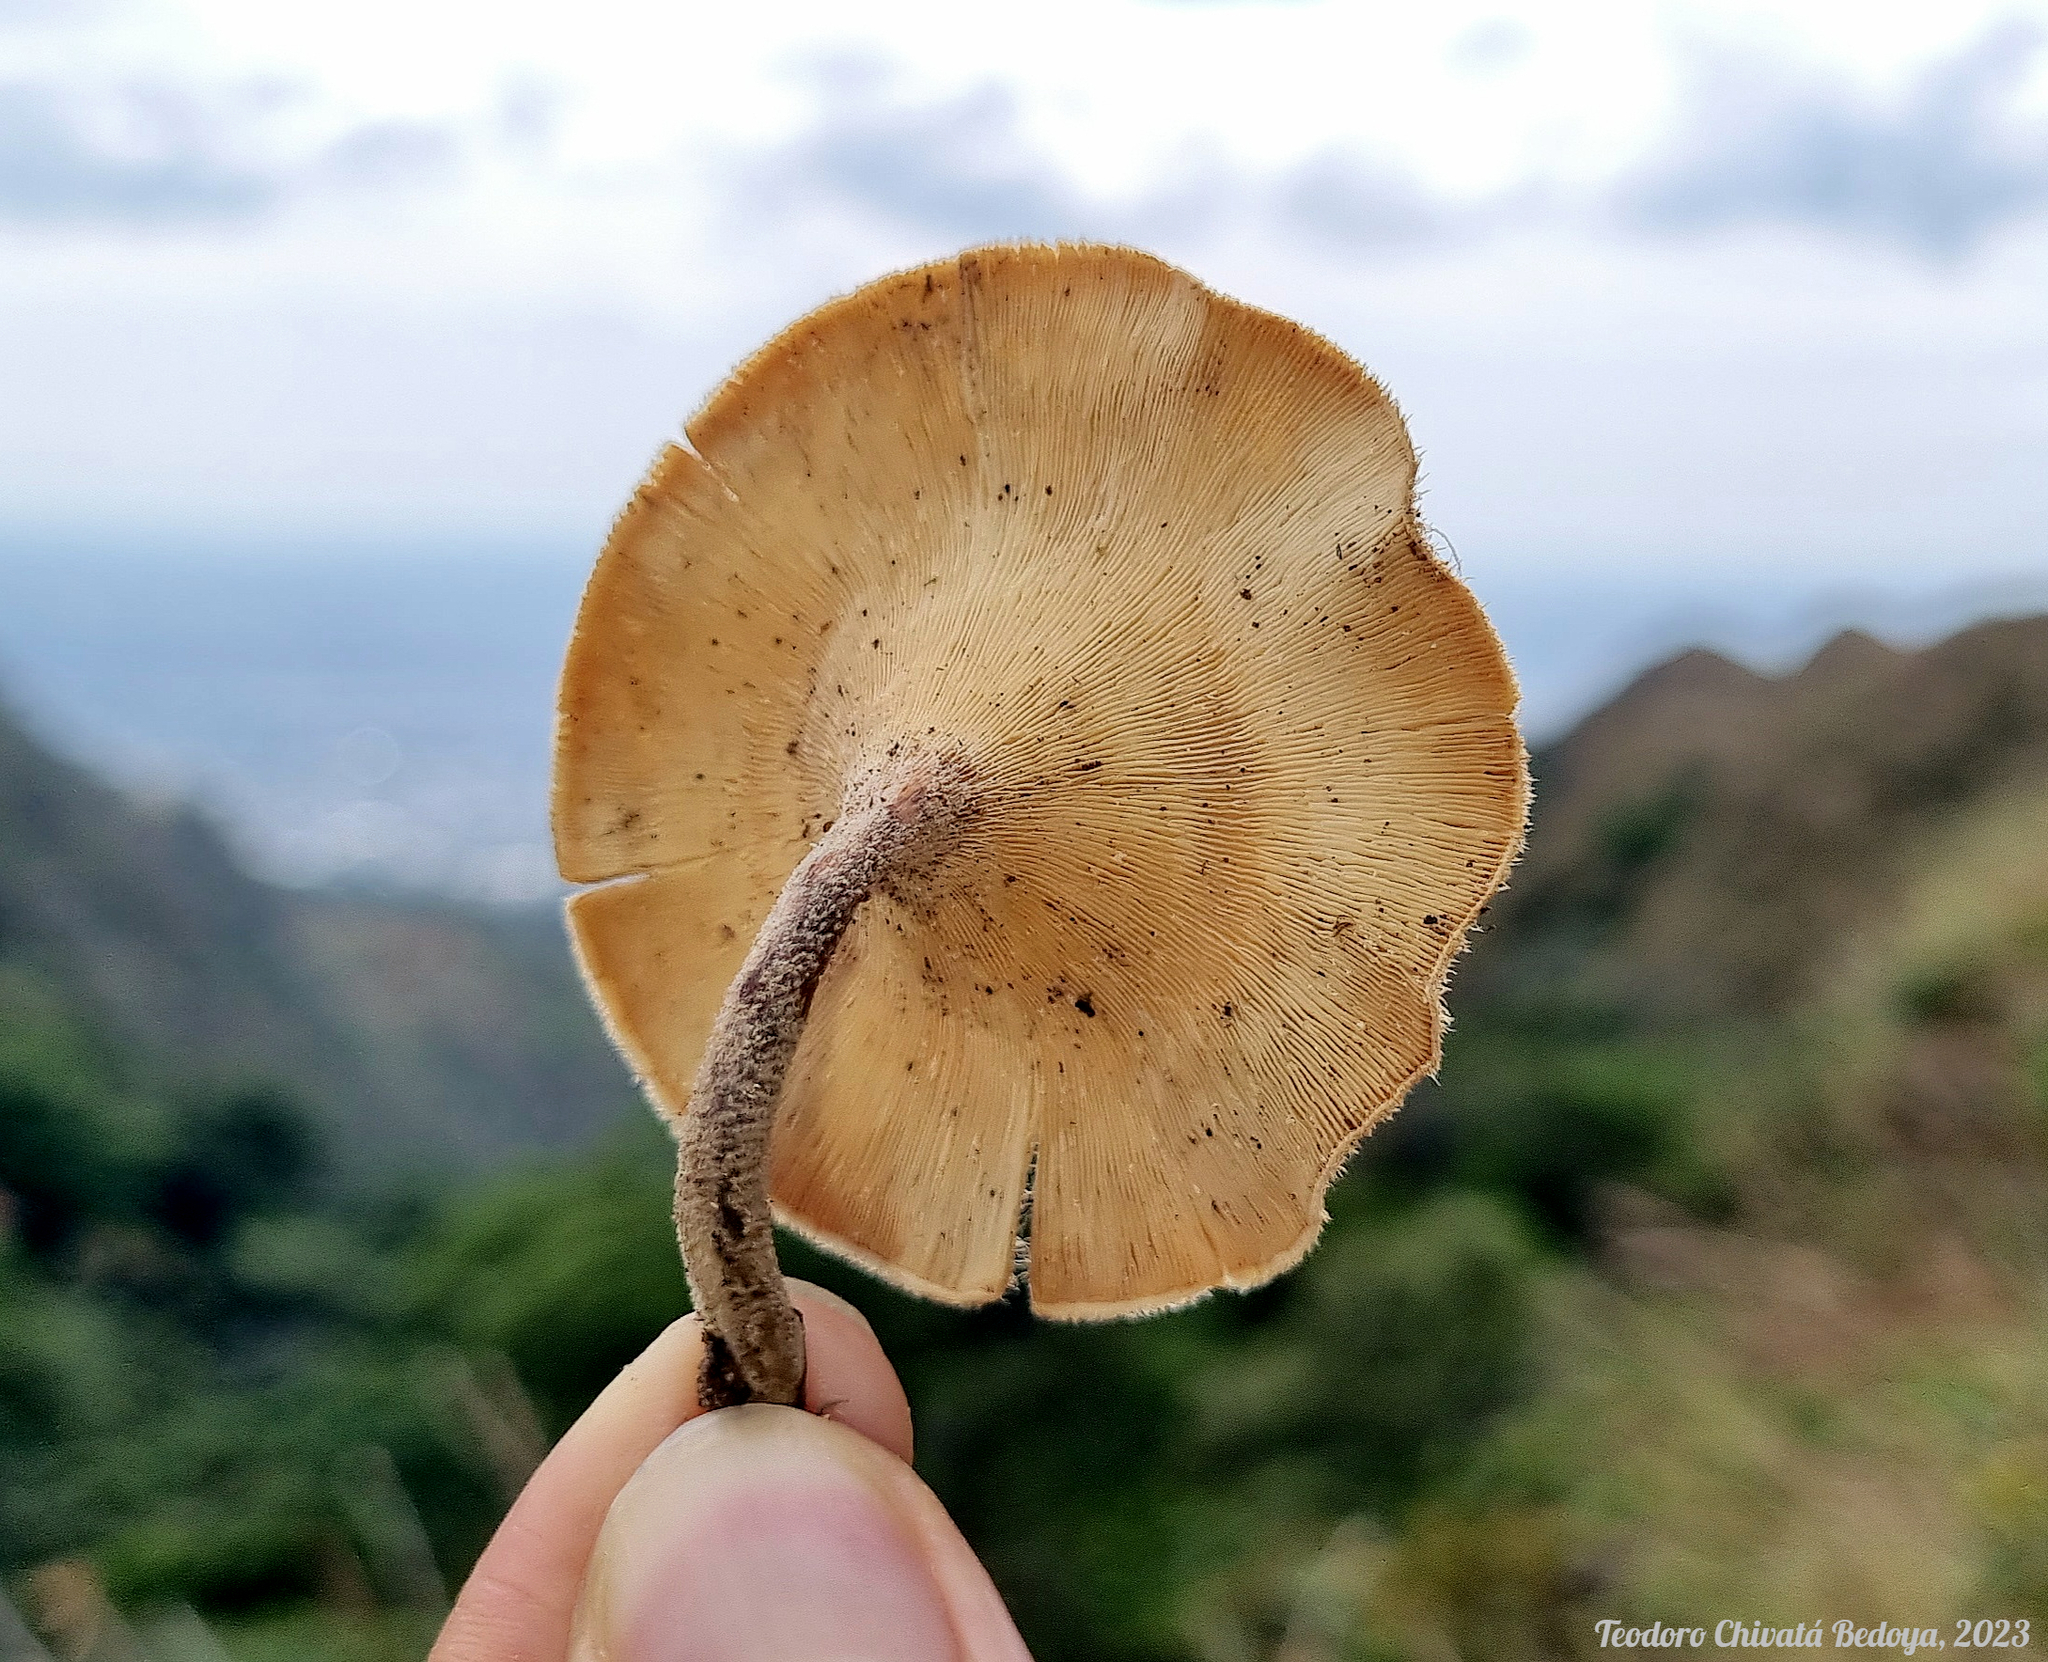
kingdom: Fungi
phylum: Basidiomycota
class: Agaricomycetes
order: Polyporales
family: Polyporaceae
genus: Lentinus
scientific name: Lentinus crinitus
